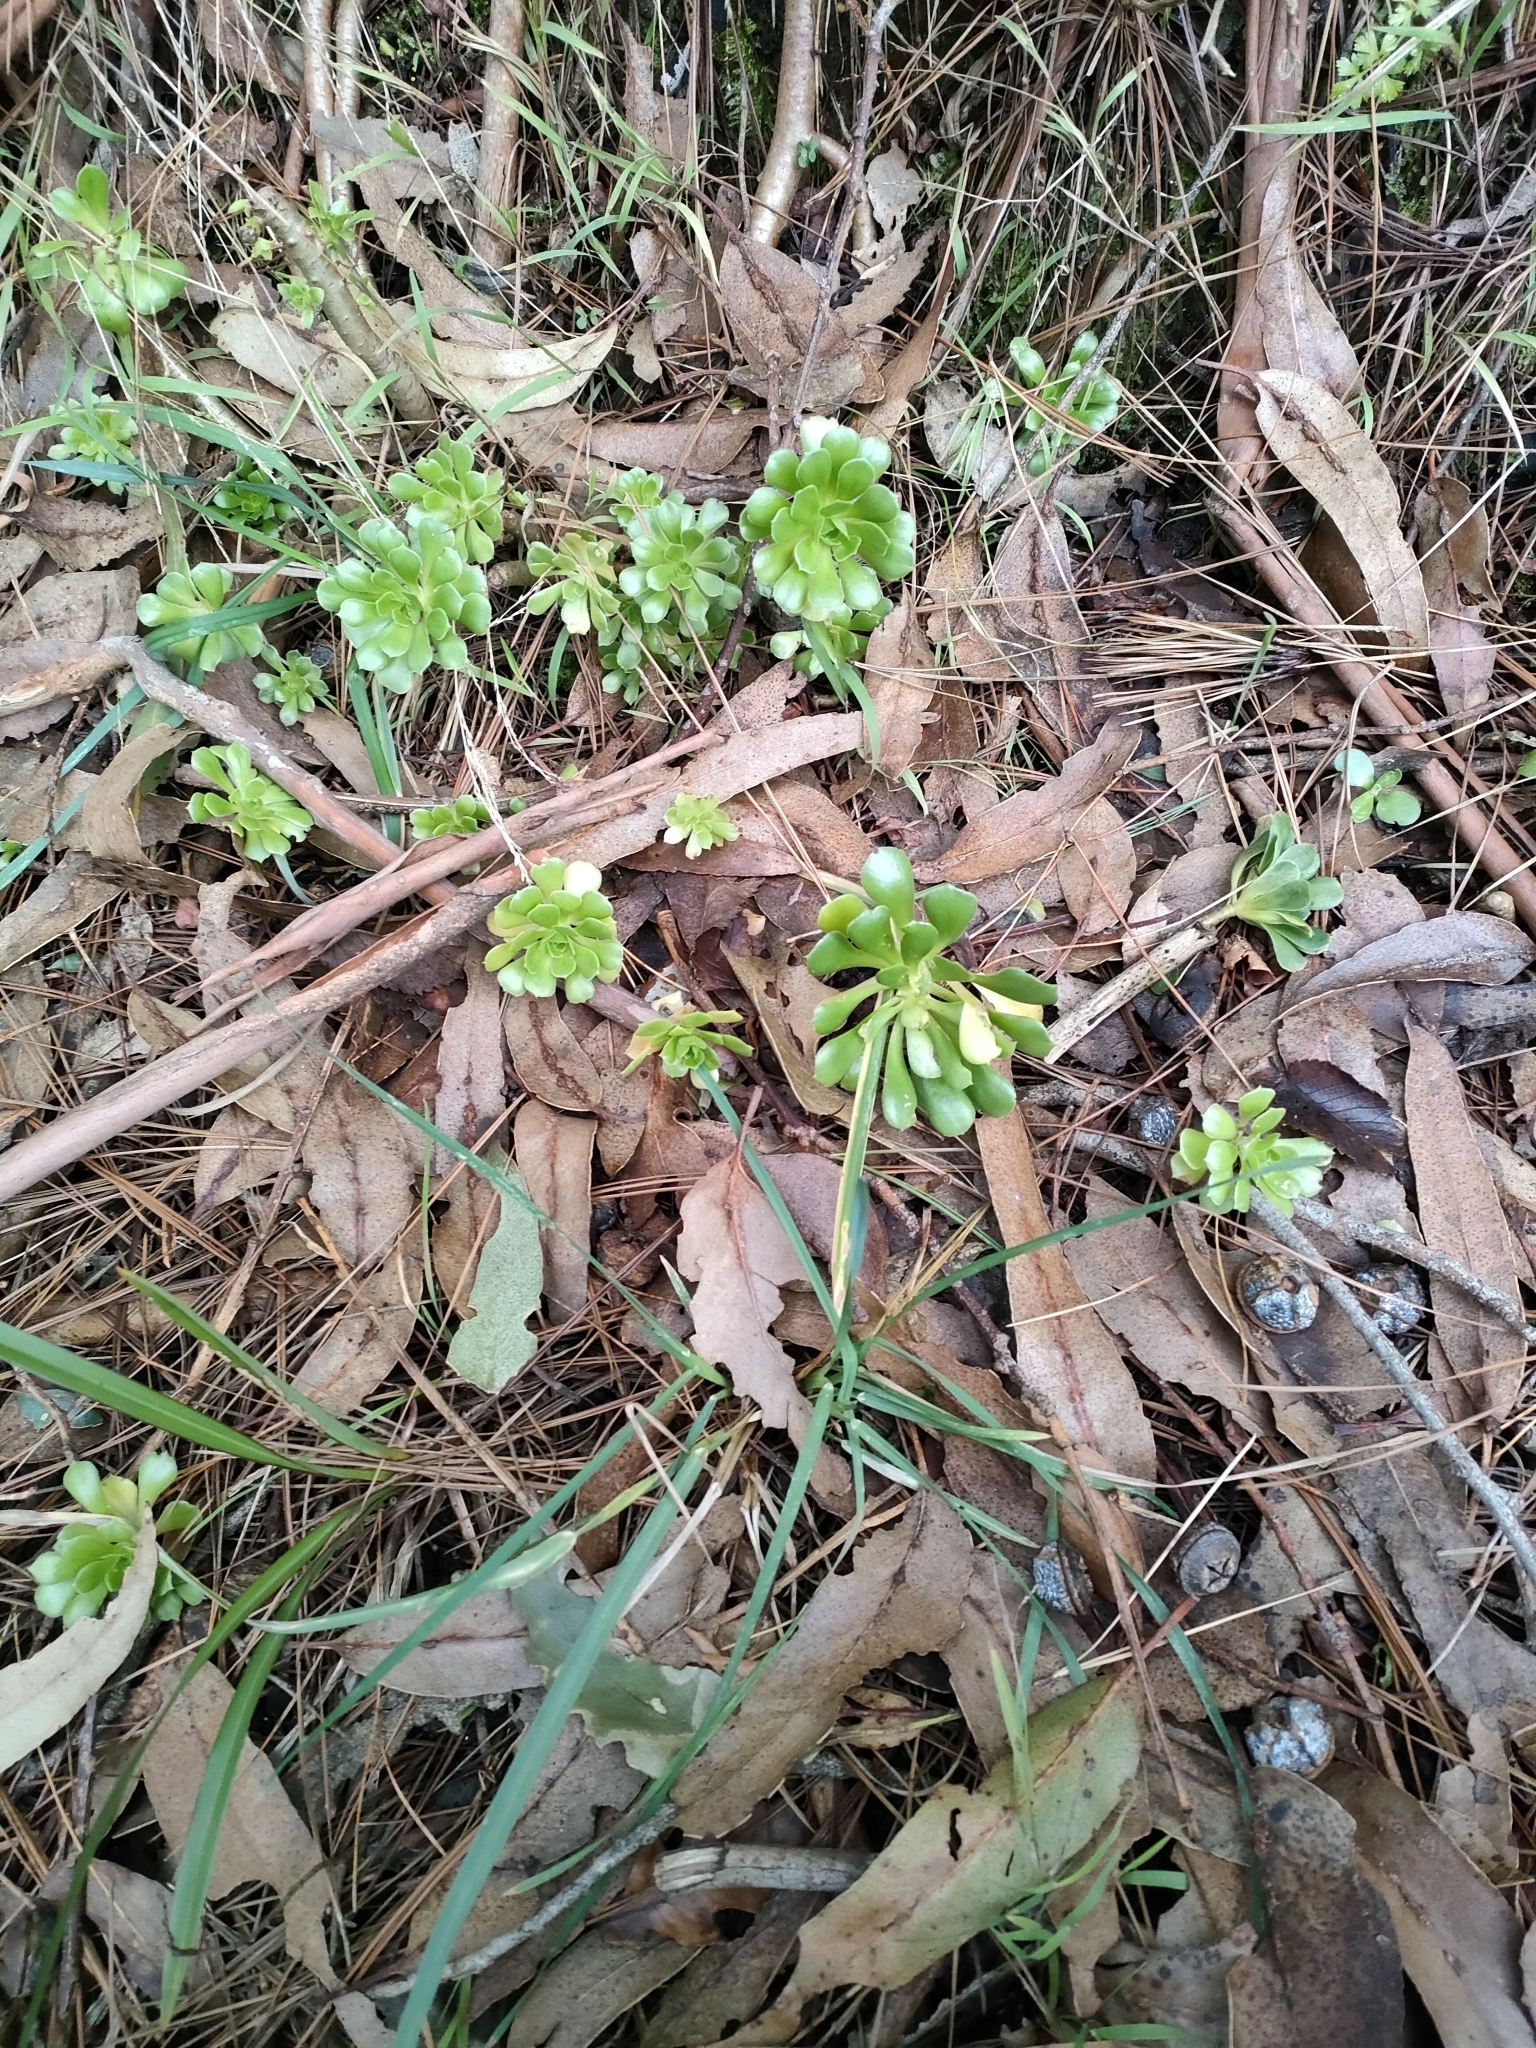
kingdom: Plantae
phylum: Tracheophyta
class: Magnoliopsida
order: Saxifragales
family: Crassulaceae
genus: Aeonium
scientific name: Aeonium arboreum
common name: Tree aeonium
